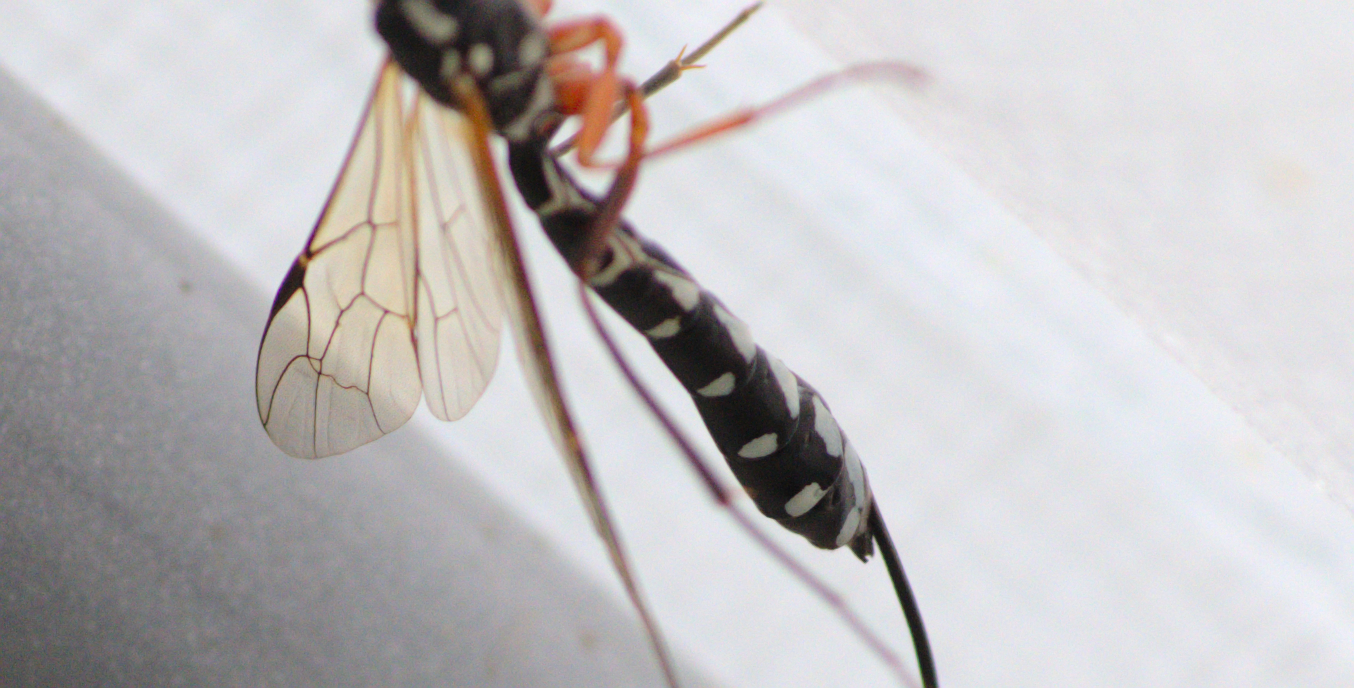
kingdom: Animalia
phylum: Arthropoda
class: Insecta
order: Hymenoptera
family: Ichneumonidae
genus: Rhyssa
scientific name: Rhyssa persuasoria
